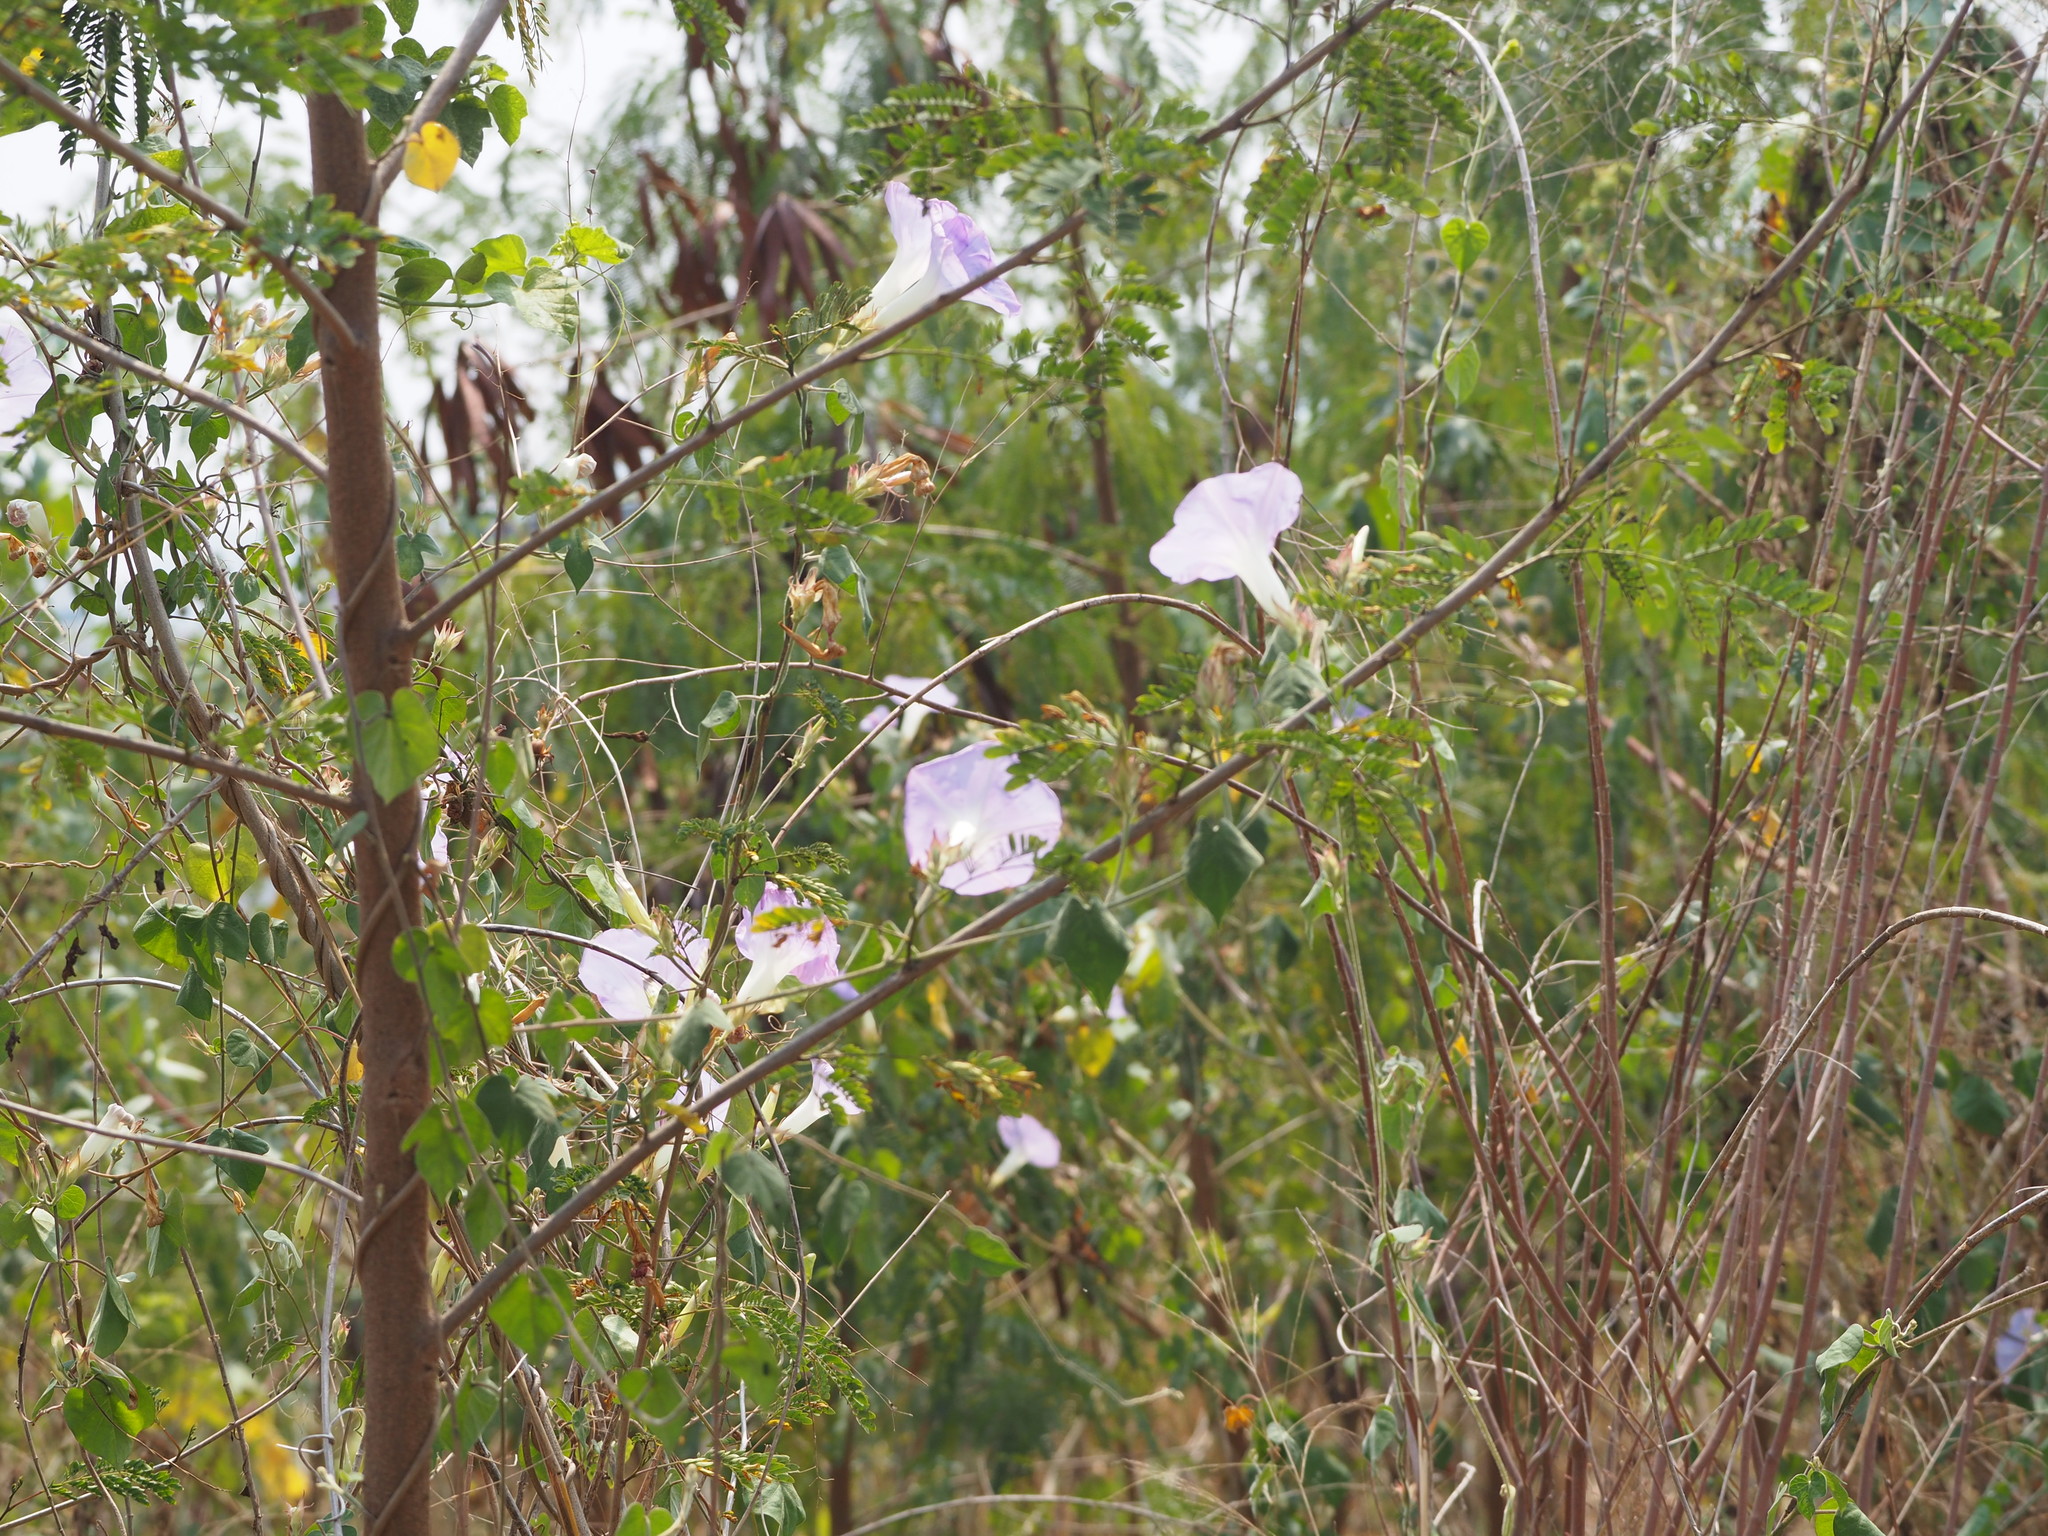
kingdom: Plantae
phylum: Tracheophyta
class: Magnoliopsida
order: Solanales
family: Convolvulaceae
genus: Ipomoea
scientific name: Ipomoea indica
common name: Blue dawnflower
